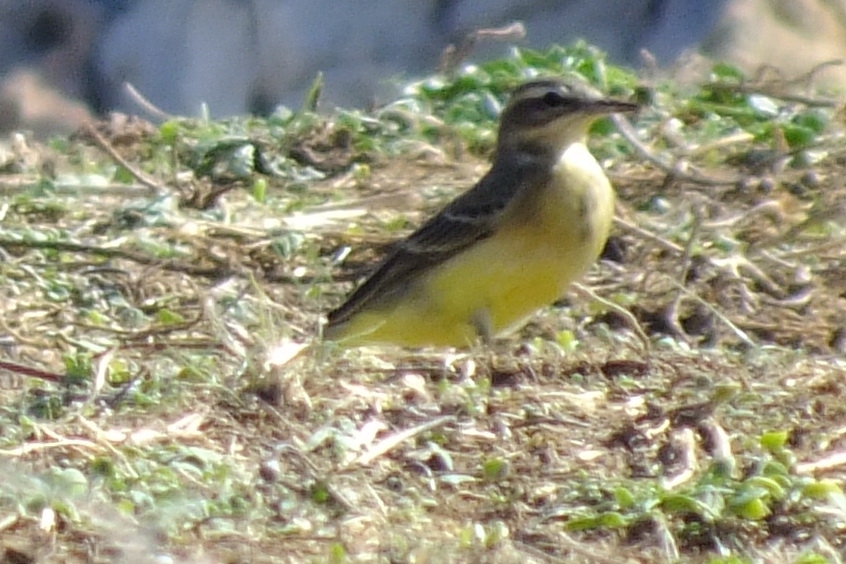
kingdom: Animalia
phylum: Chordata
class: Aves
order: Passeriformes
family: Motacillidae
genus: Motacilla
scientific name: Motacilla flava
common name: Western yellow wagtail
